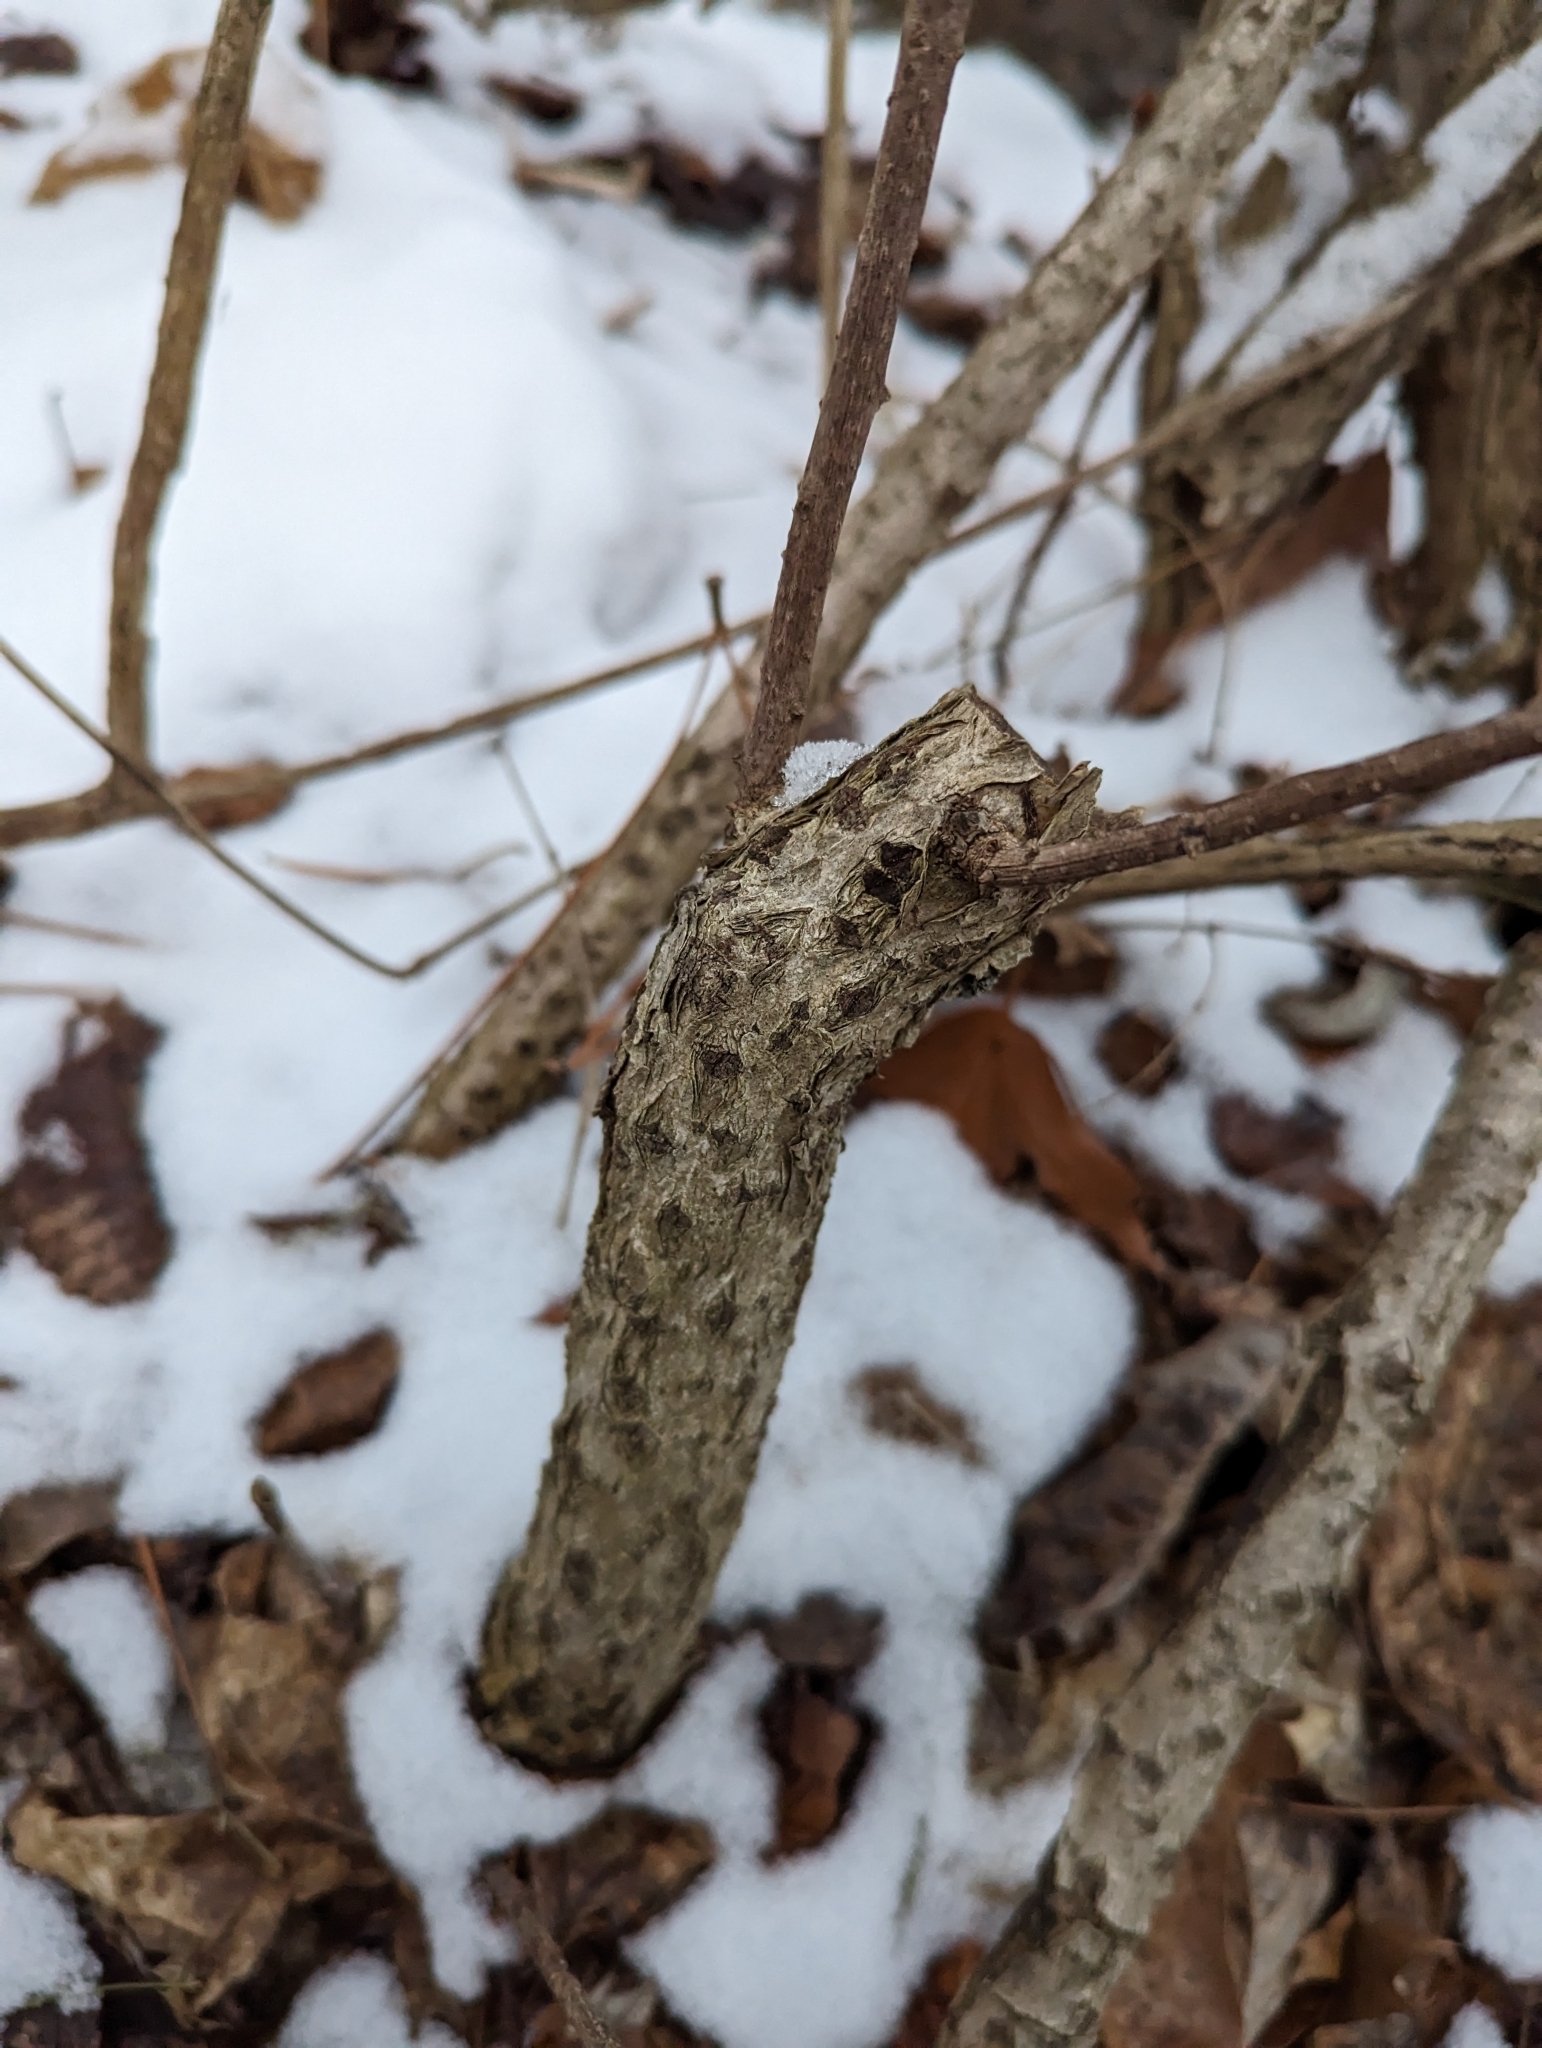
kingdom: Plantae
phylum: Tracheophyta
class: Magnoliopsida
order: Celastrales
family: Celastraceae
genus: Celastrus
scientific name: Celastrus orbiculatus
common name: Oriental bittersweet
